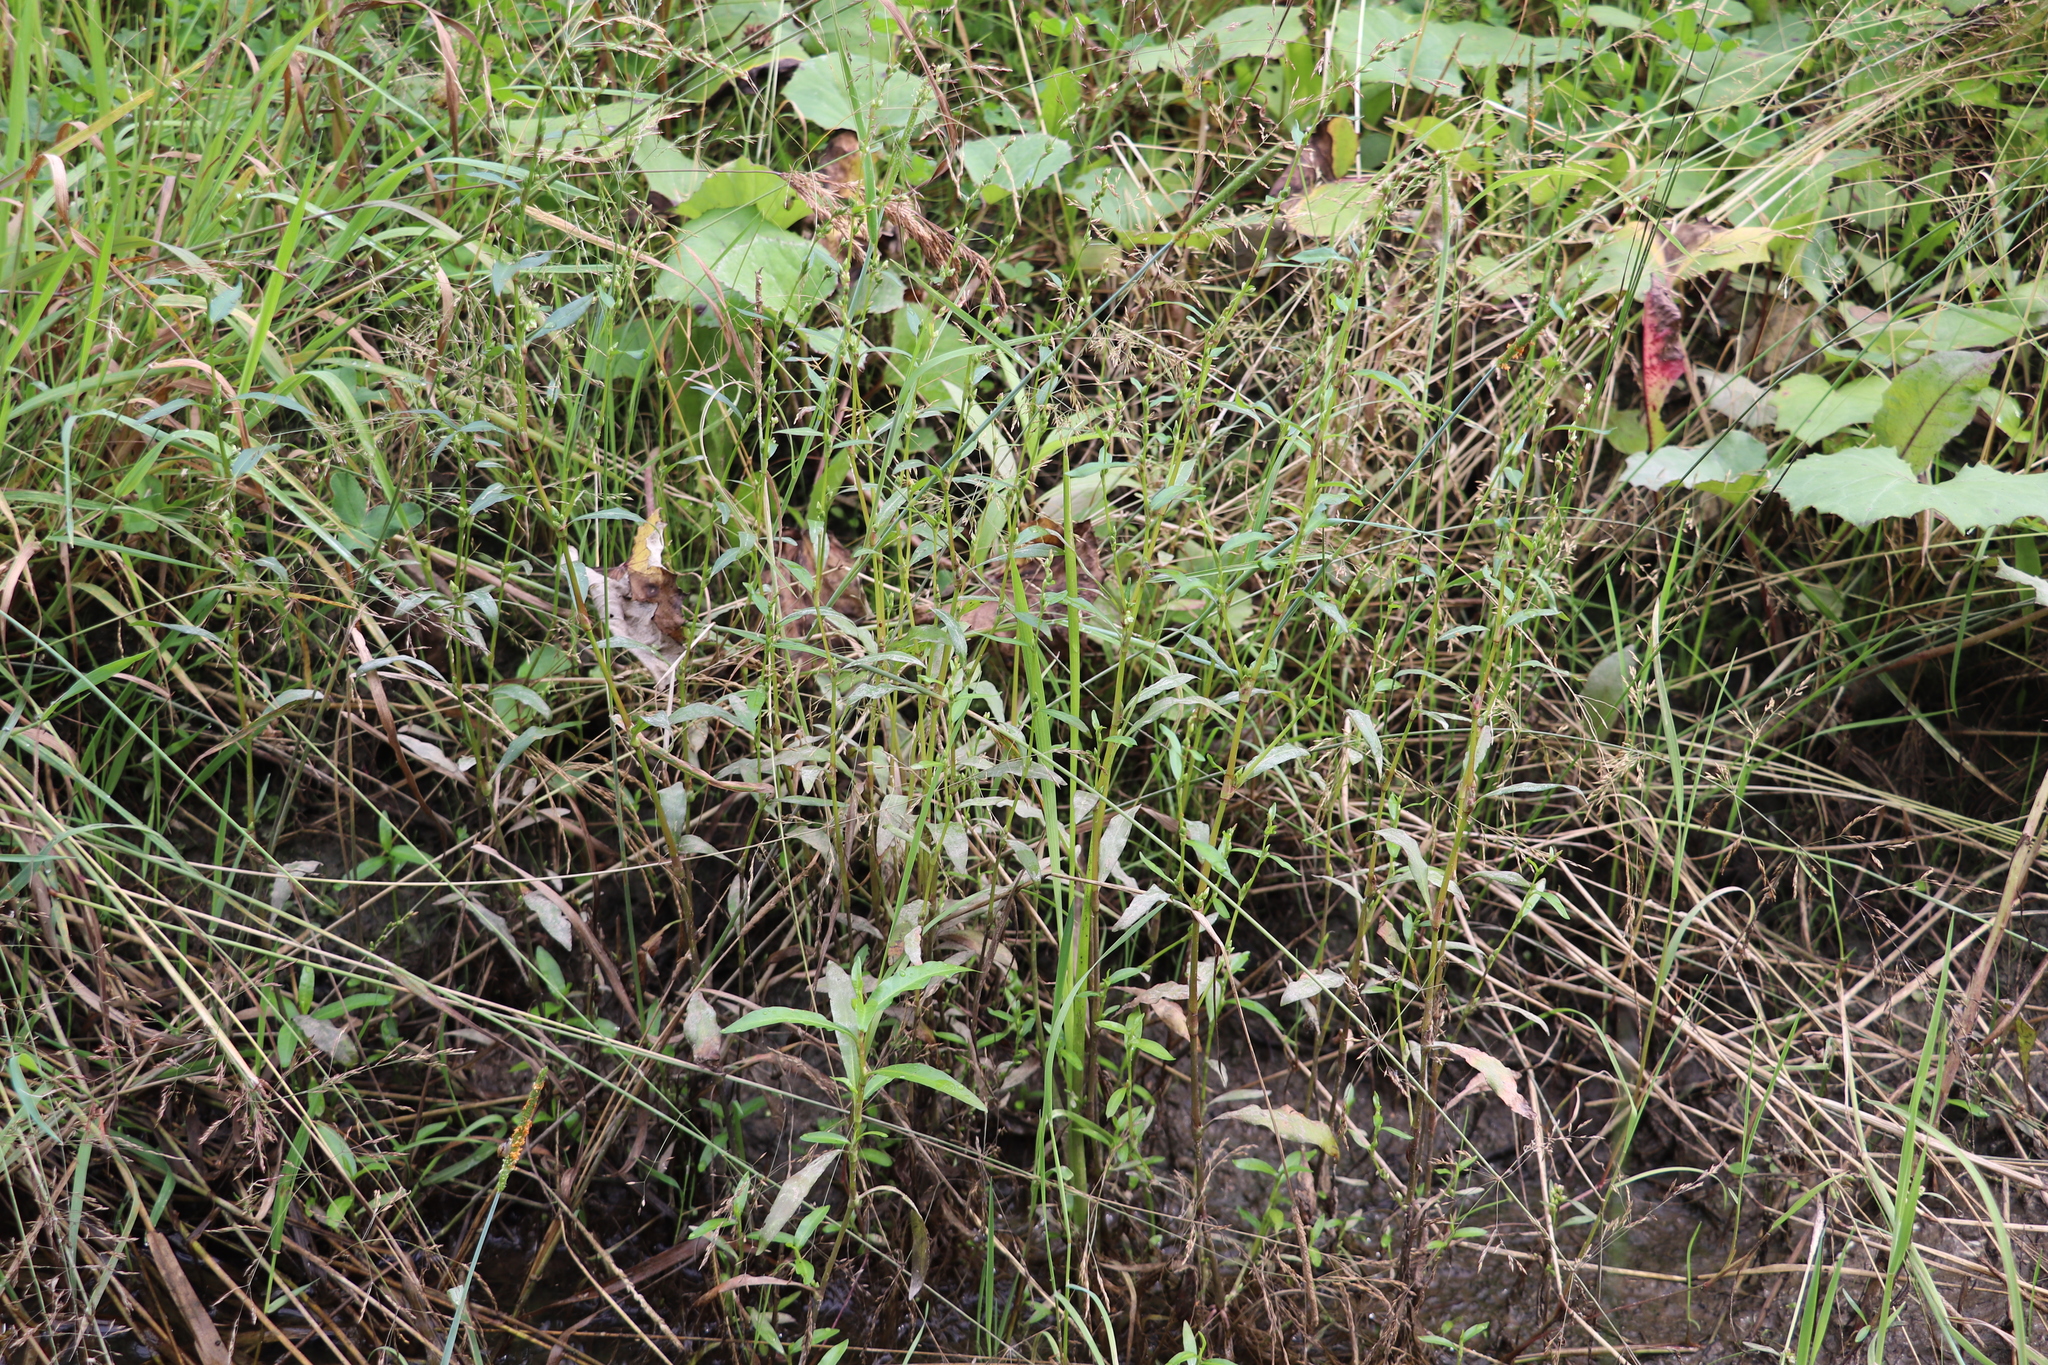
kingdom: Plantae
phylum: Tracheophyta
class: Magnoliopsida
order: Caryophyllales
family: Polygonaceae
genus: Persicaria
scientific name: Persicaria hydropiper
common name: Water-pepper
